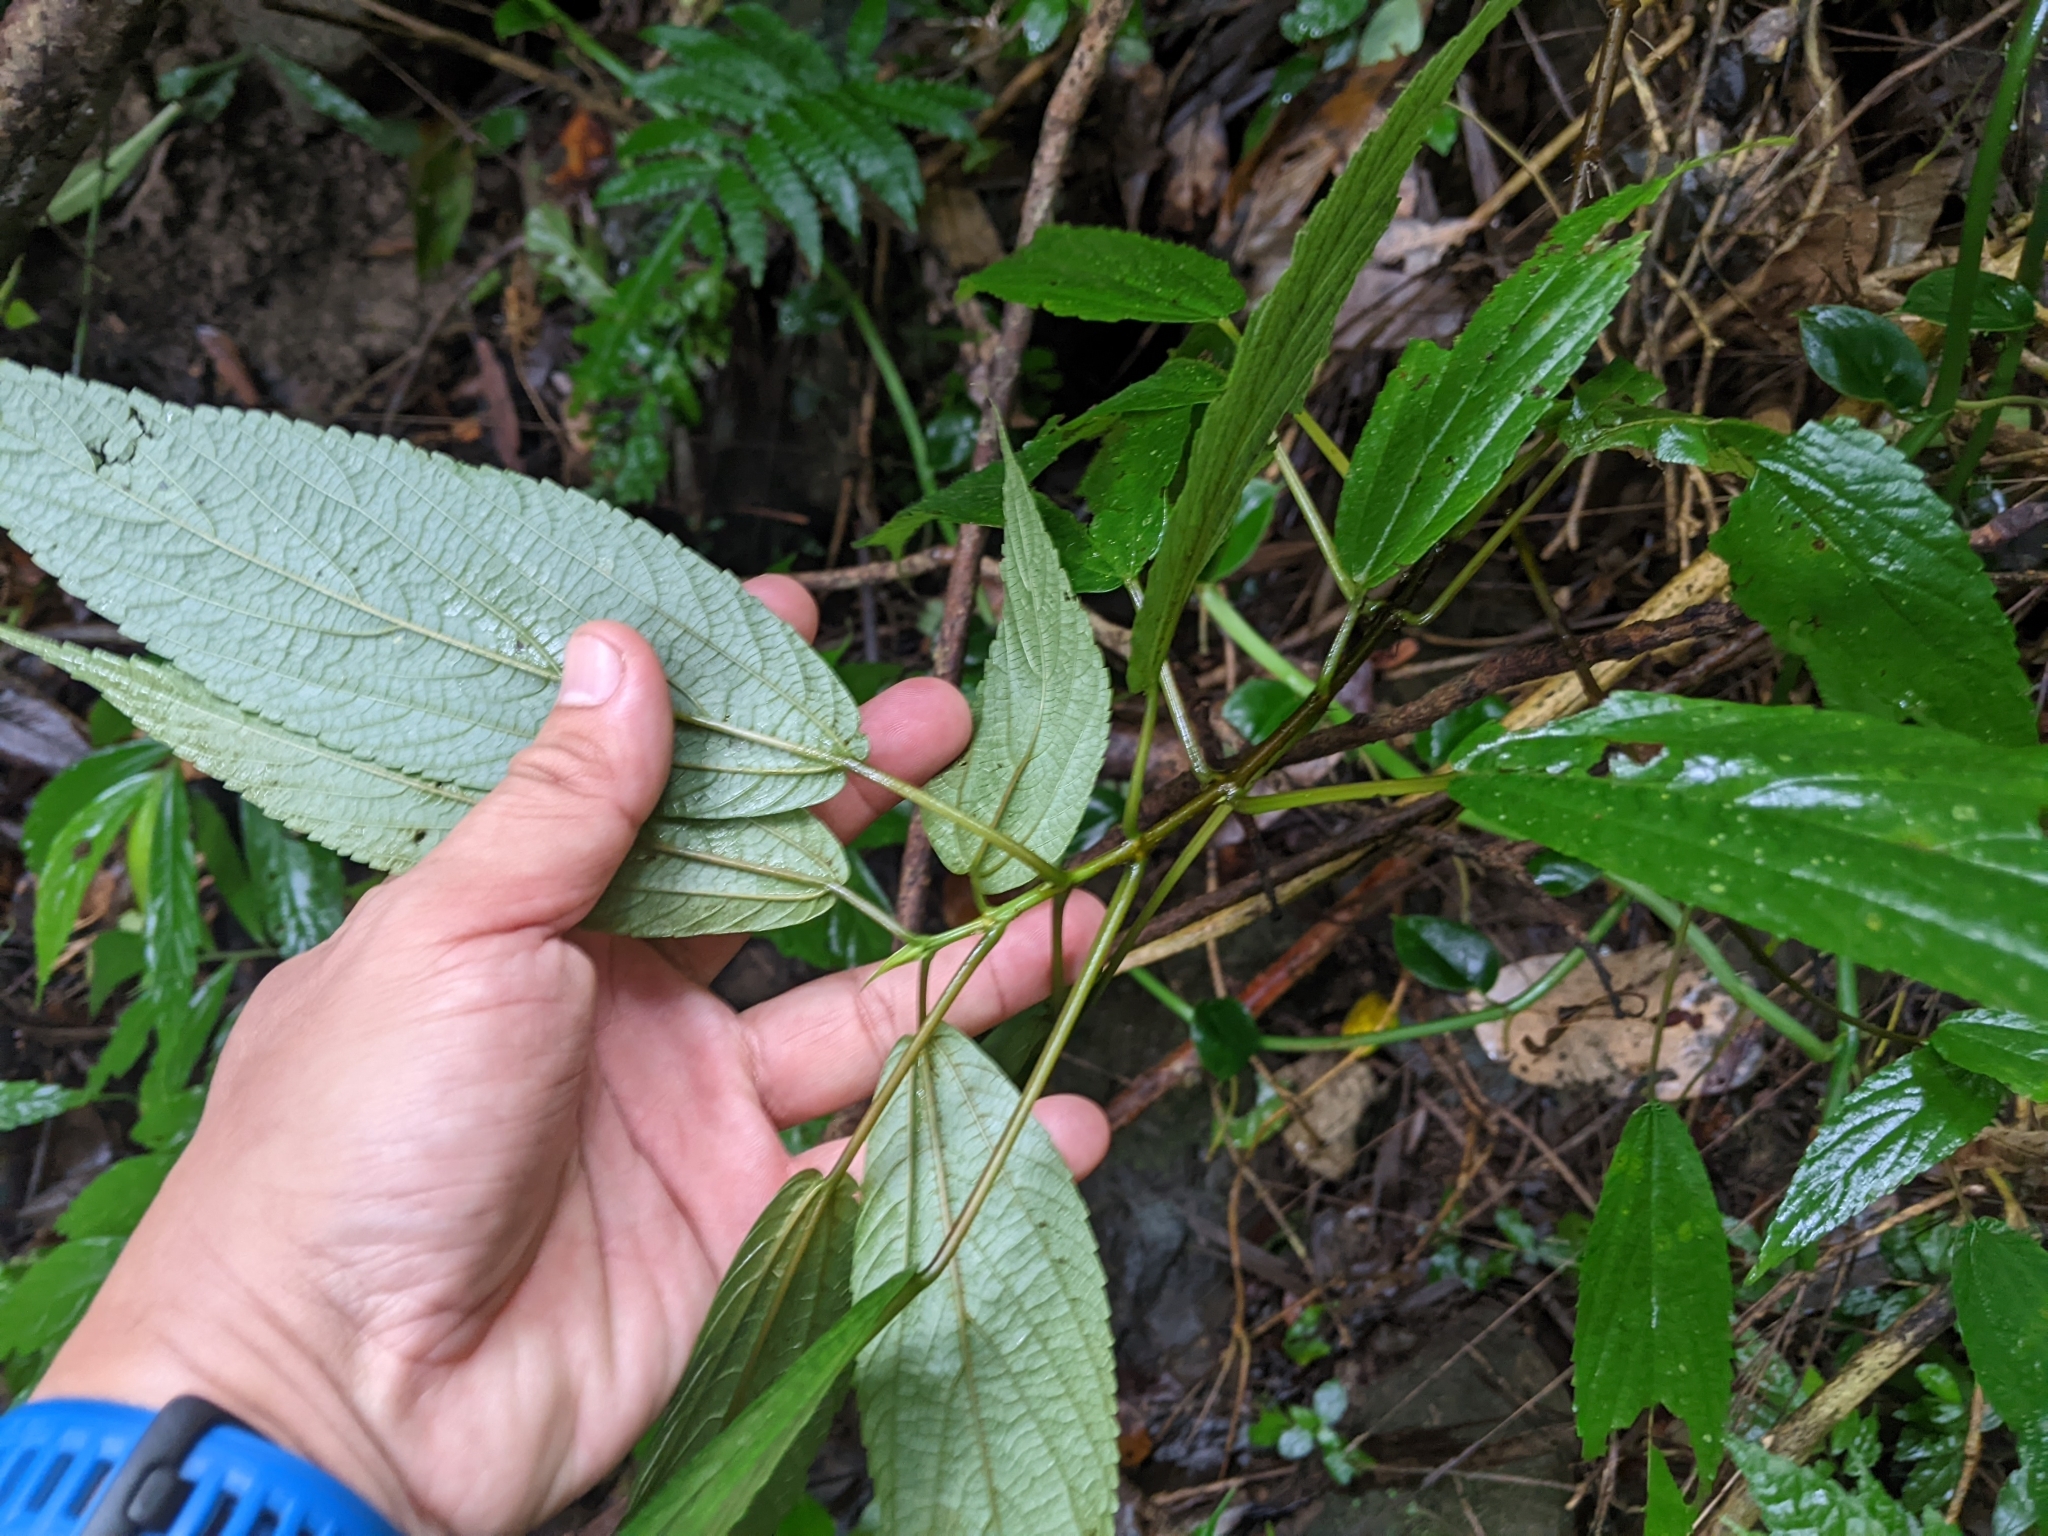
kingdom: Plantae
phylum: Tracheophyta
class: Magnoliopsida
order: Rosales
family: Urticaceae
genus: Boehmeria
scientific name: Boehmeria zollingeriana
